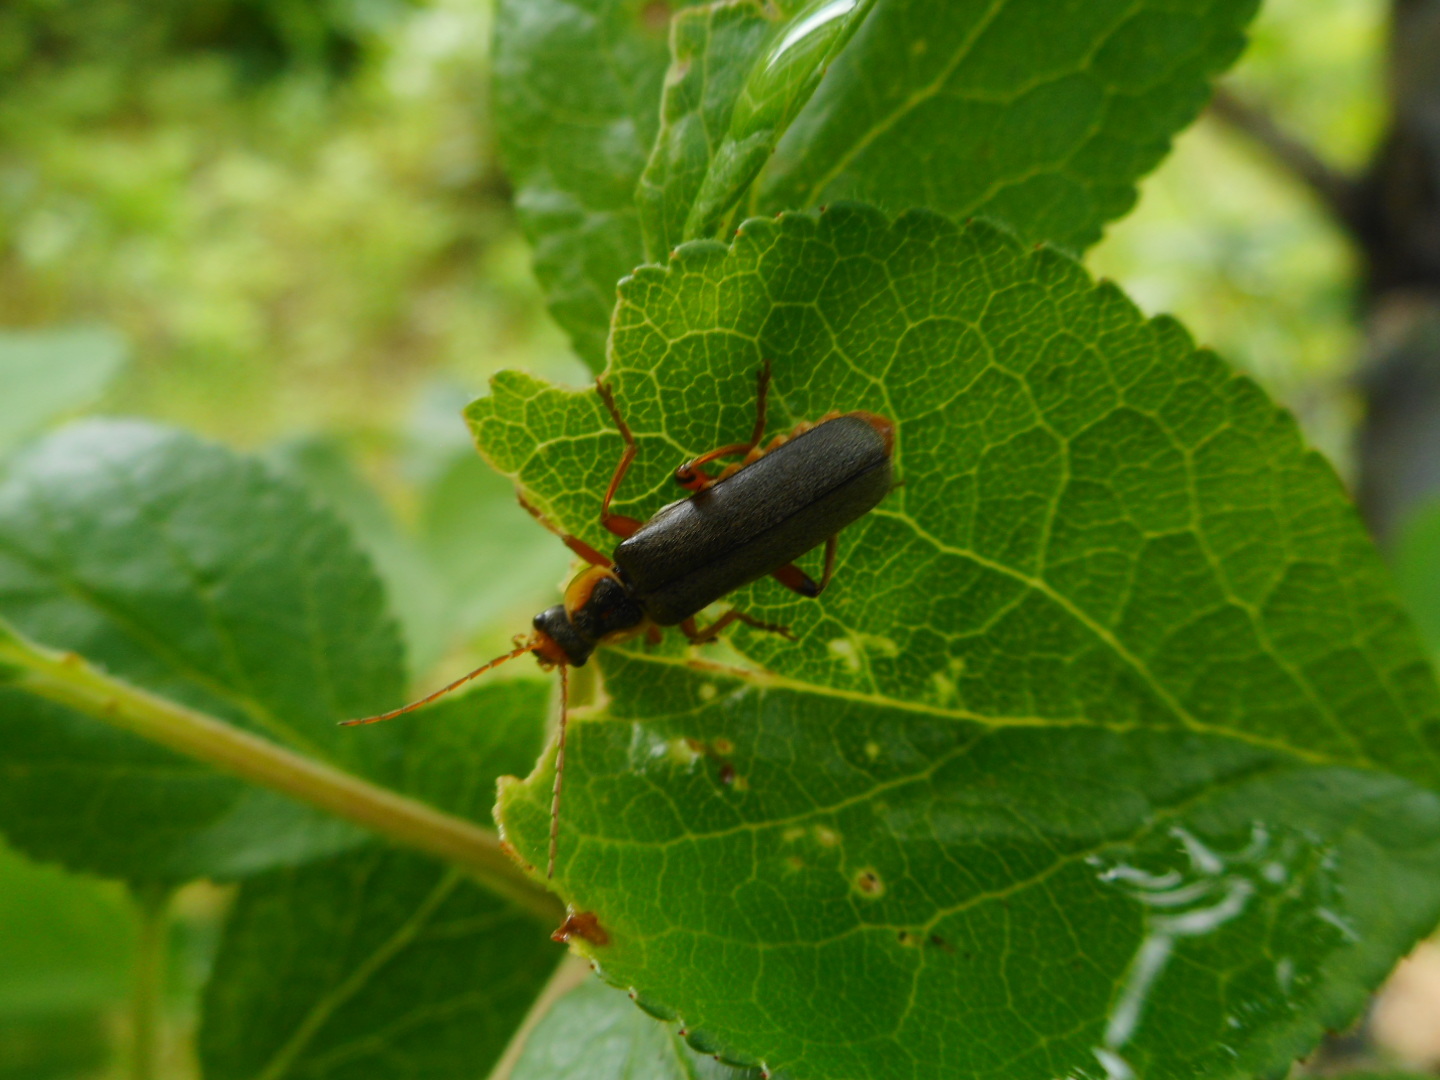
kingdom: Animalia
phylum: Arthropoda
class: Insecta
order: Coleoptera
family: Cantharidae
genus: Cantharis
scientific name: Cantharis nigricans
